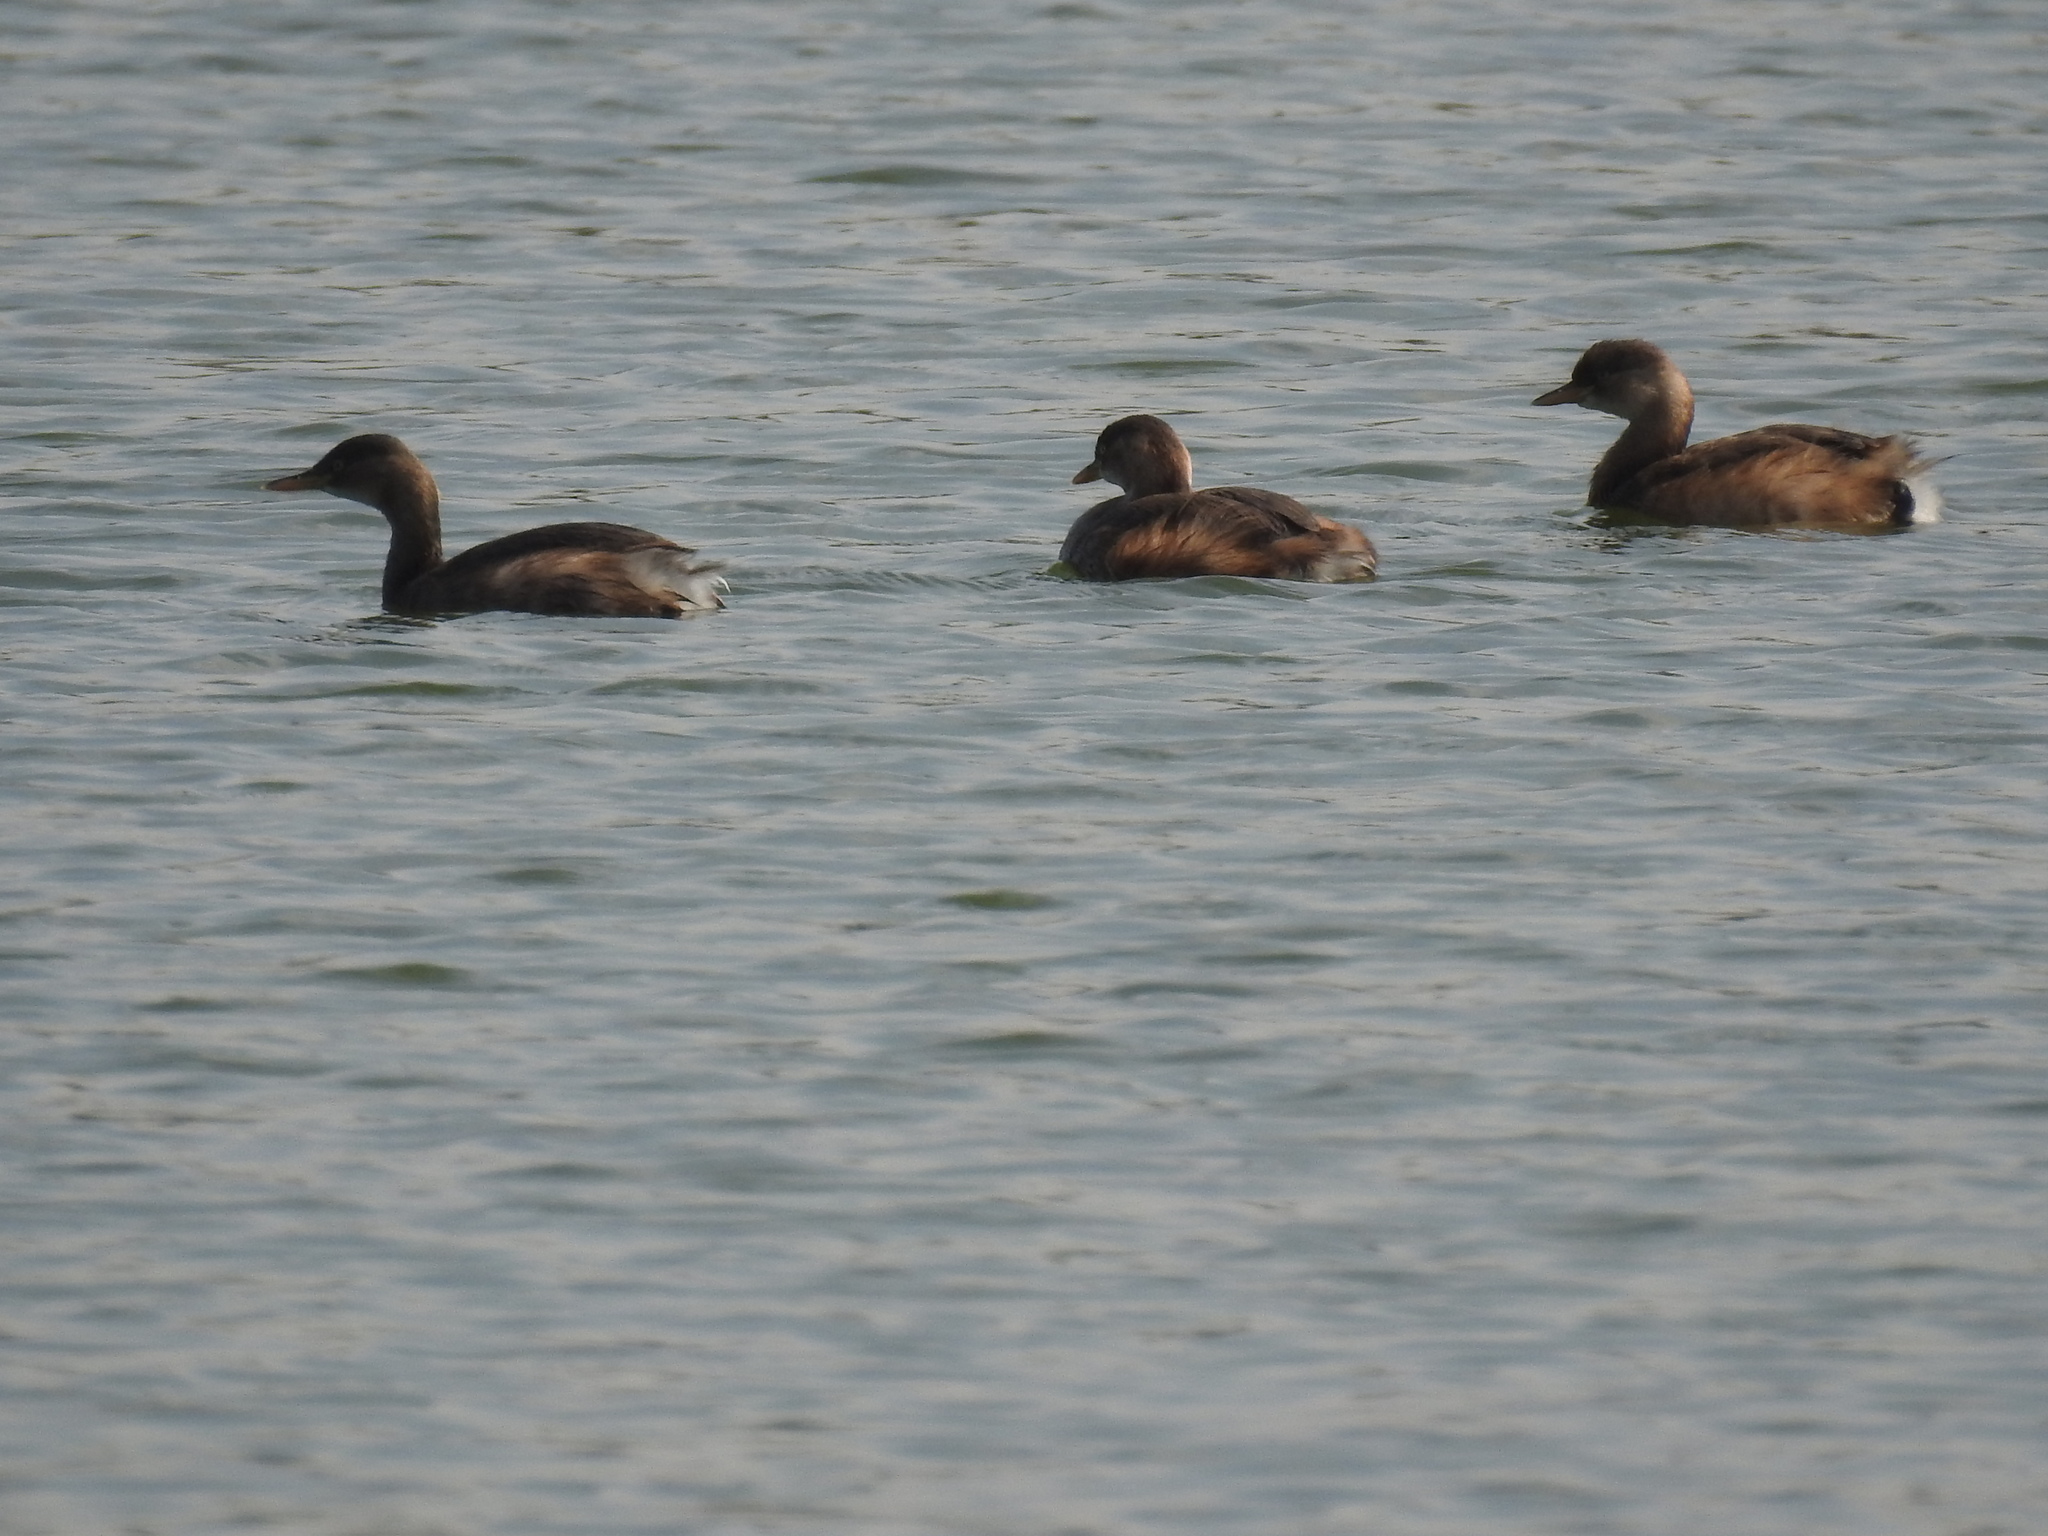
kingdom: Animalia
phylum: Chordata
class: Aves
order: Podicipediformes
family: Podicipedidae
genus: Tachybaptus
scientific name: Tachybaptus ruficollis
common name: Little grebe
